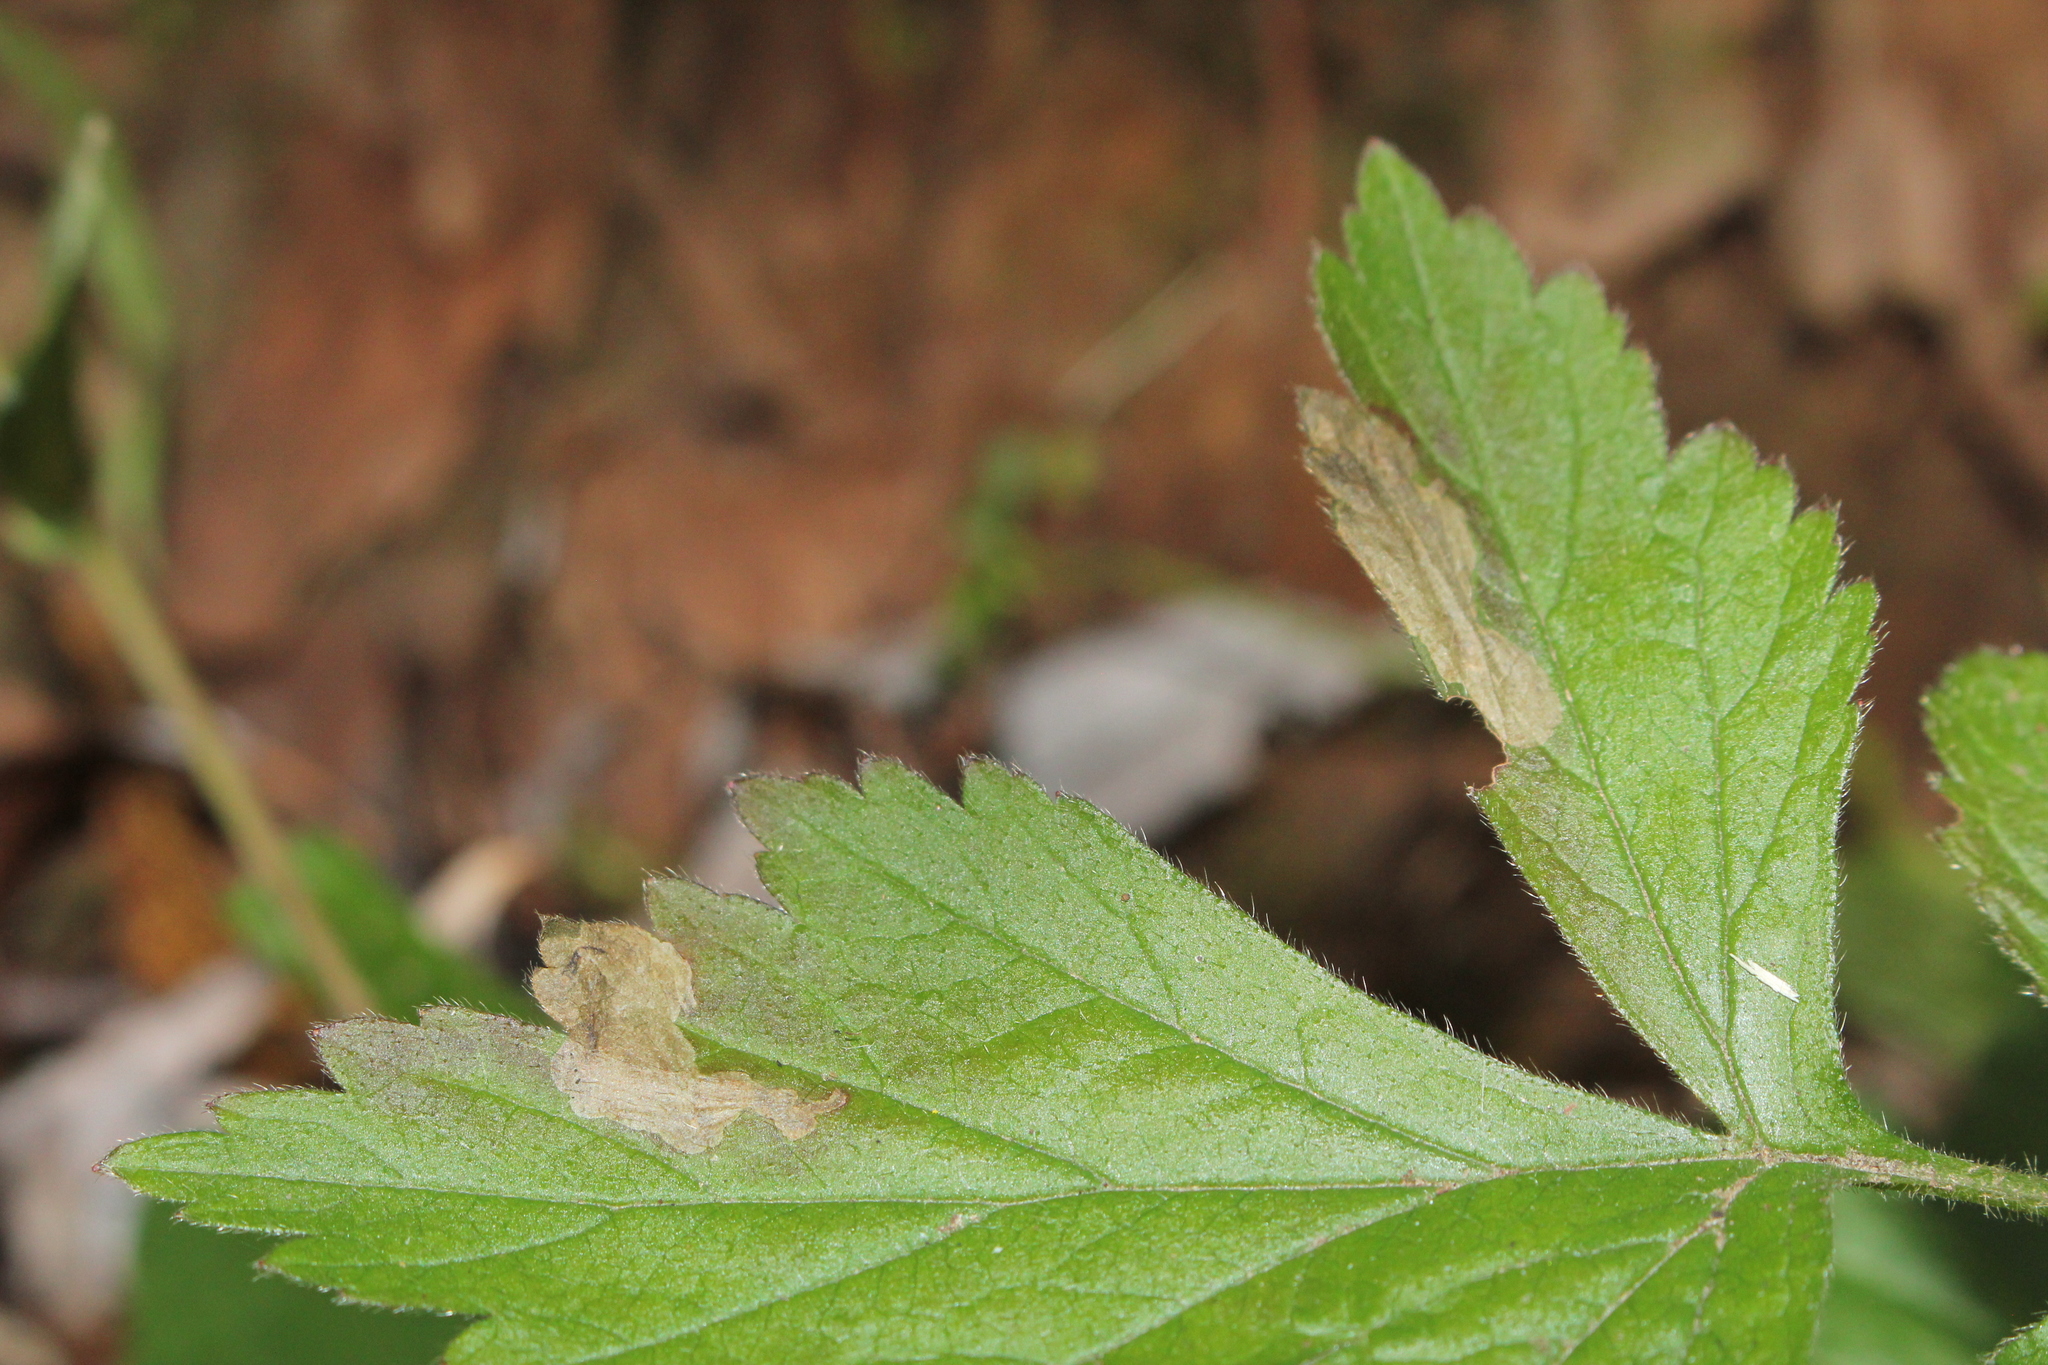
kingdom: Animalia
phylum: Arthropoda
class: Insecta
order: Hymenoptera
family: Tenthredinidae
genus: Metallus
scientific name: Metallus lanceolatus
